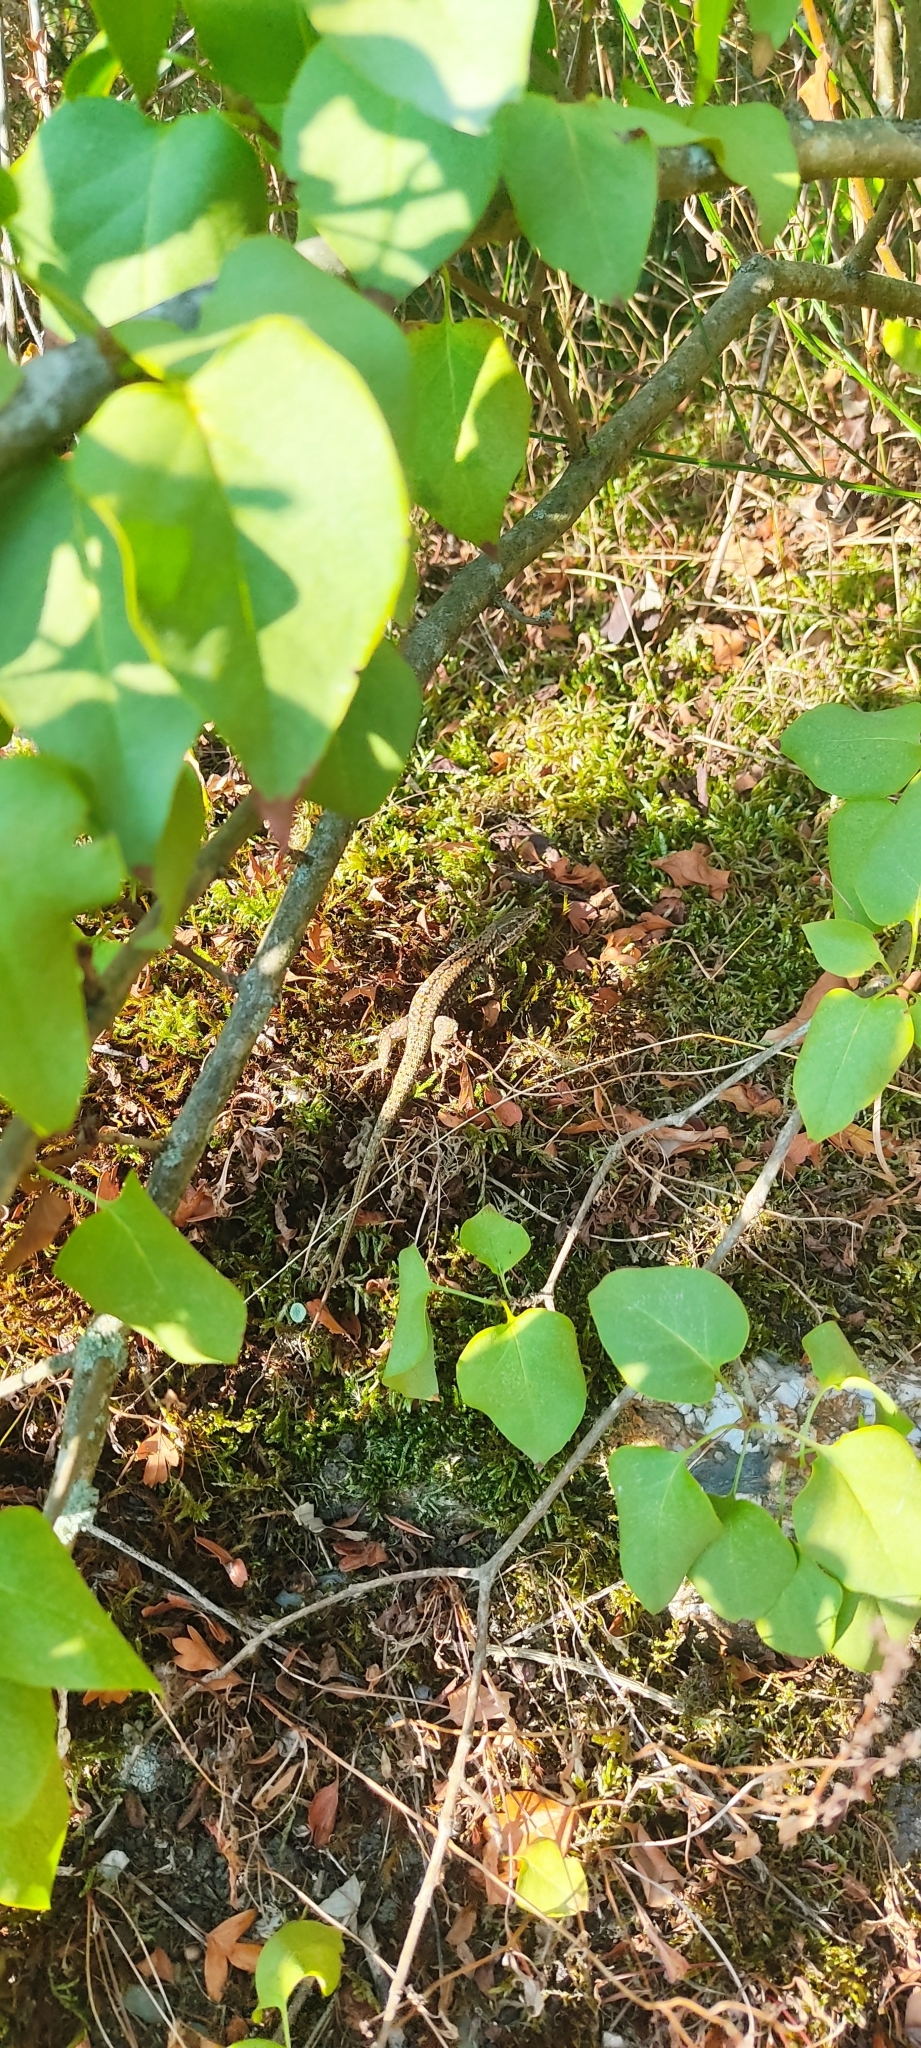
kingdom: Animalia
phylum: Chordata
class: Squamata
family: Lacertidae
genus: Podarcis
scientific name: Podarcis muralis
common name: Common wall lizard
